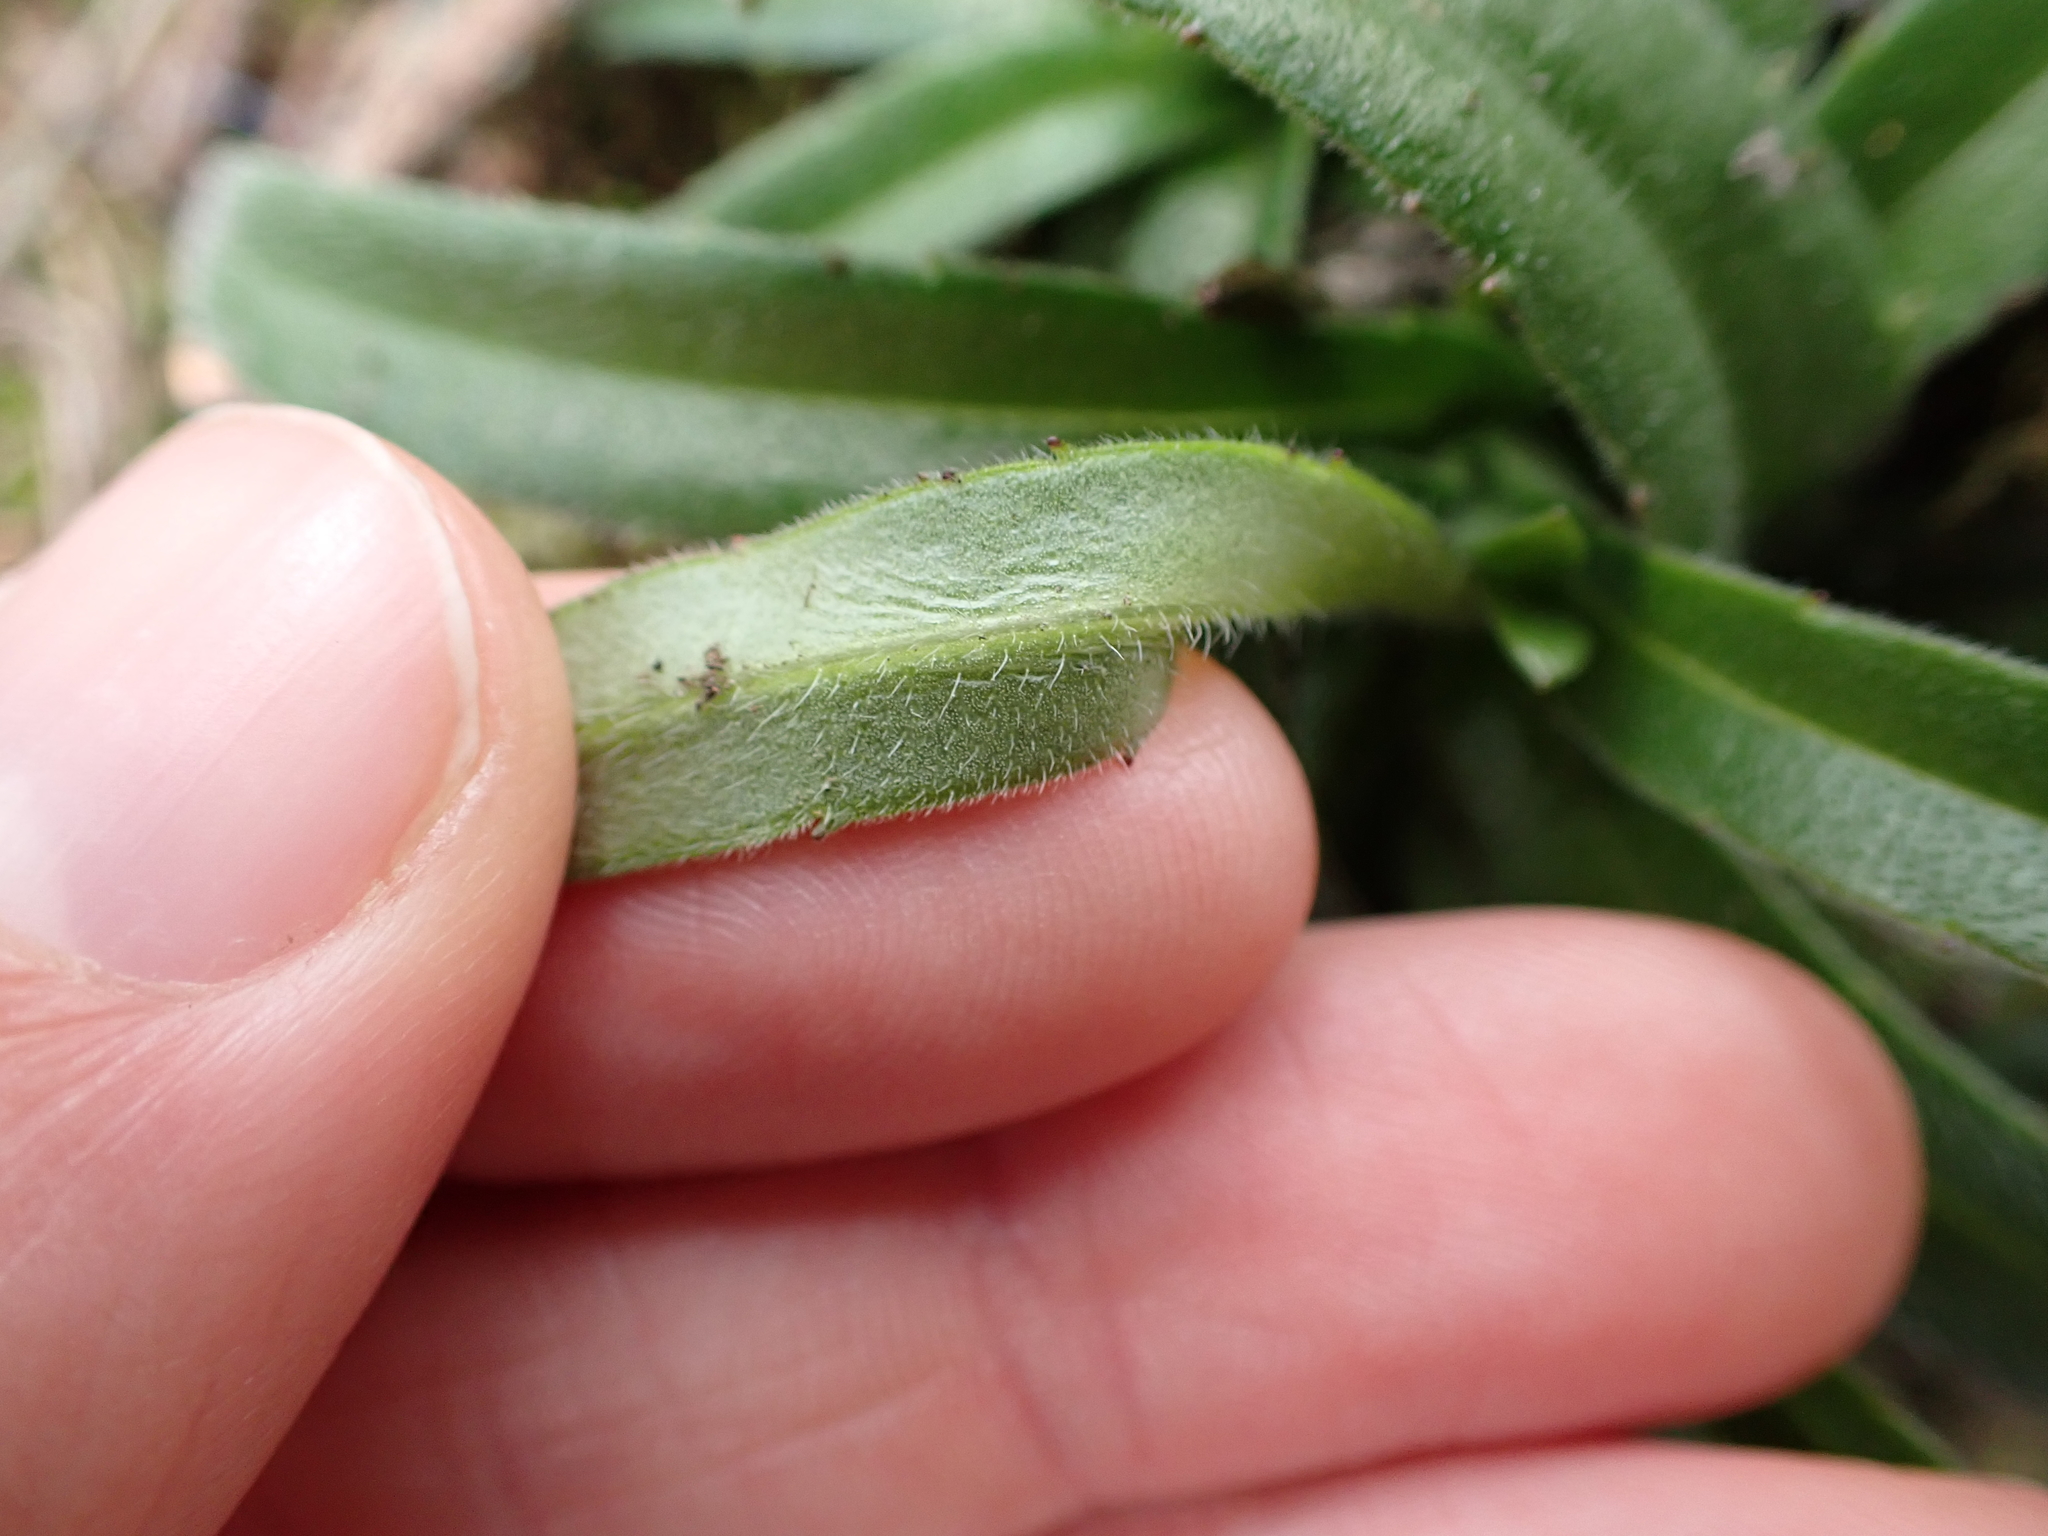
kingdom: Plantae
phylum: Tracheophyta
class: Magnoliopsida
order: Asterales
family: Asteraceae
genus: Anisocarpus
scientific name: Anisocarpus madioides
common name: Woodland madia
